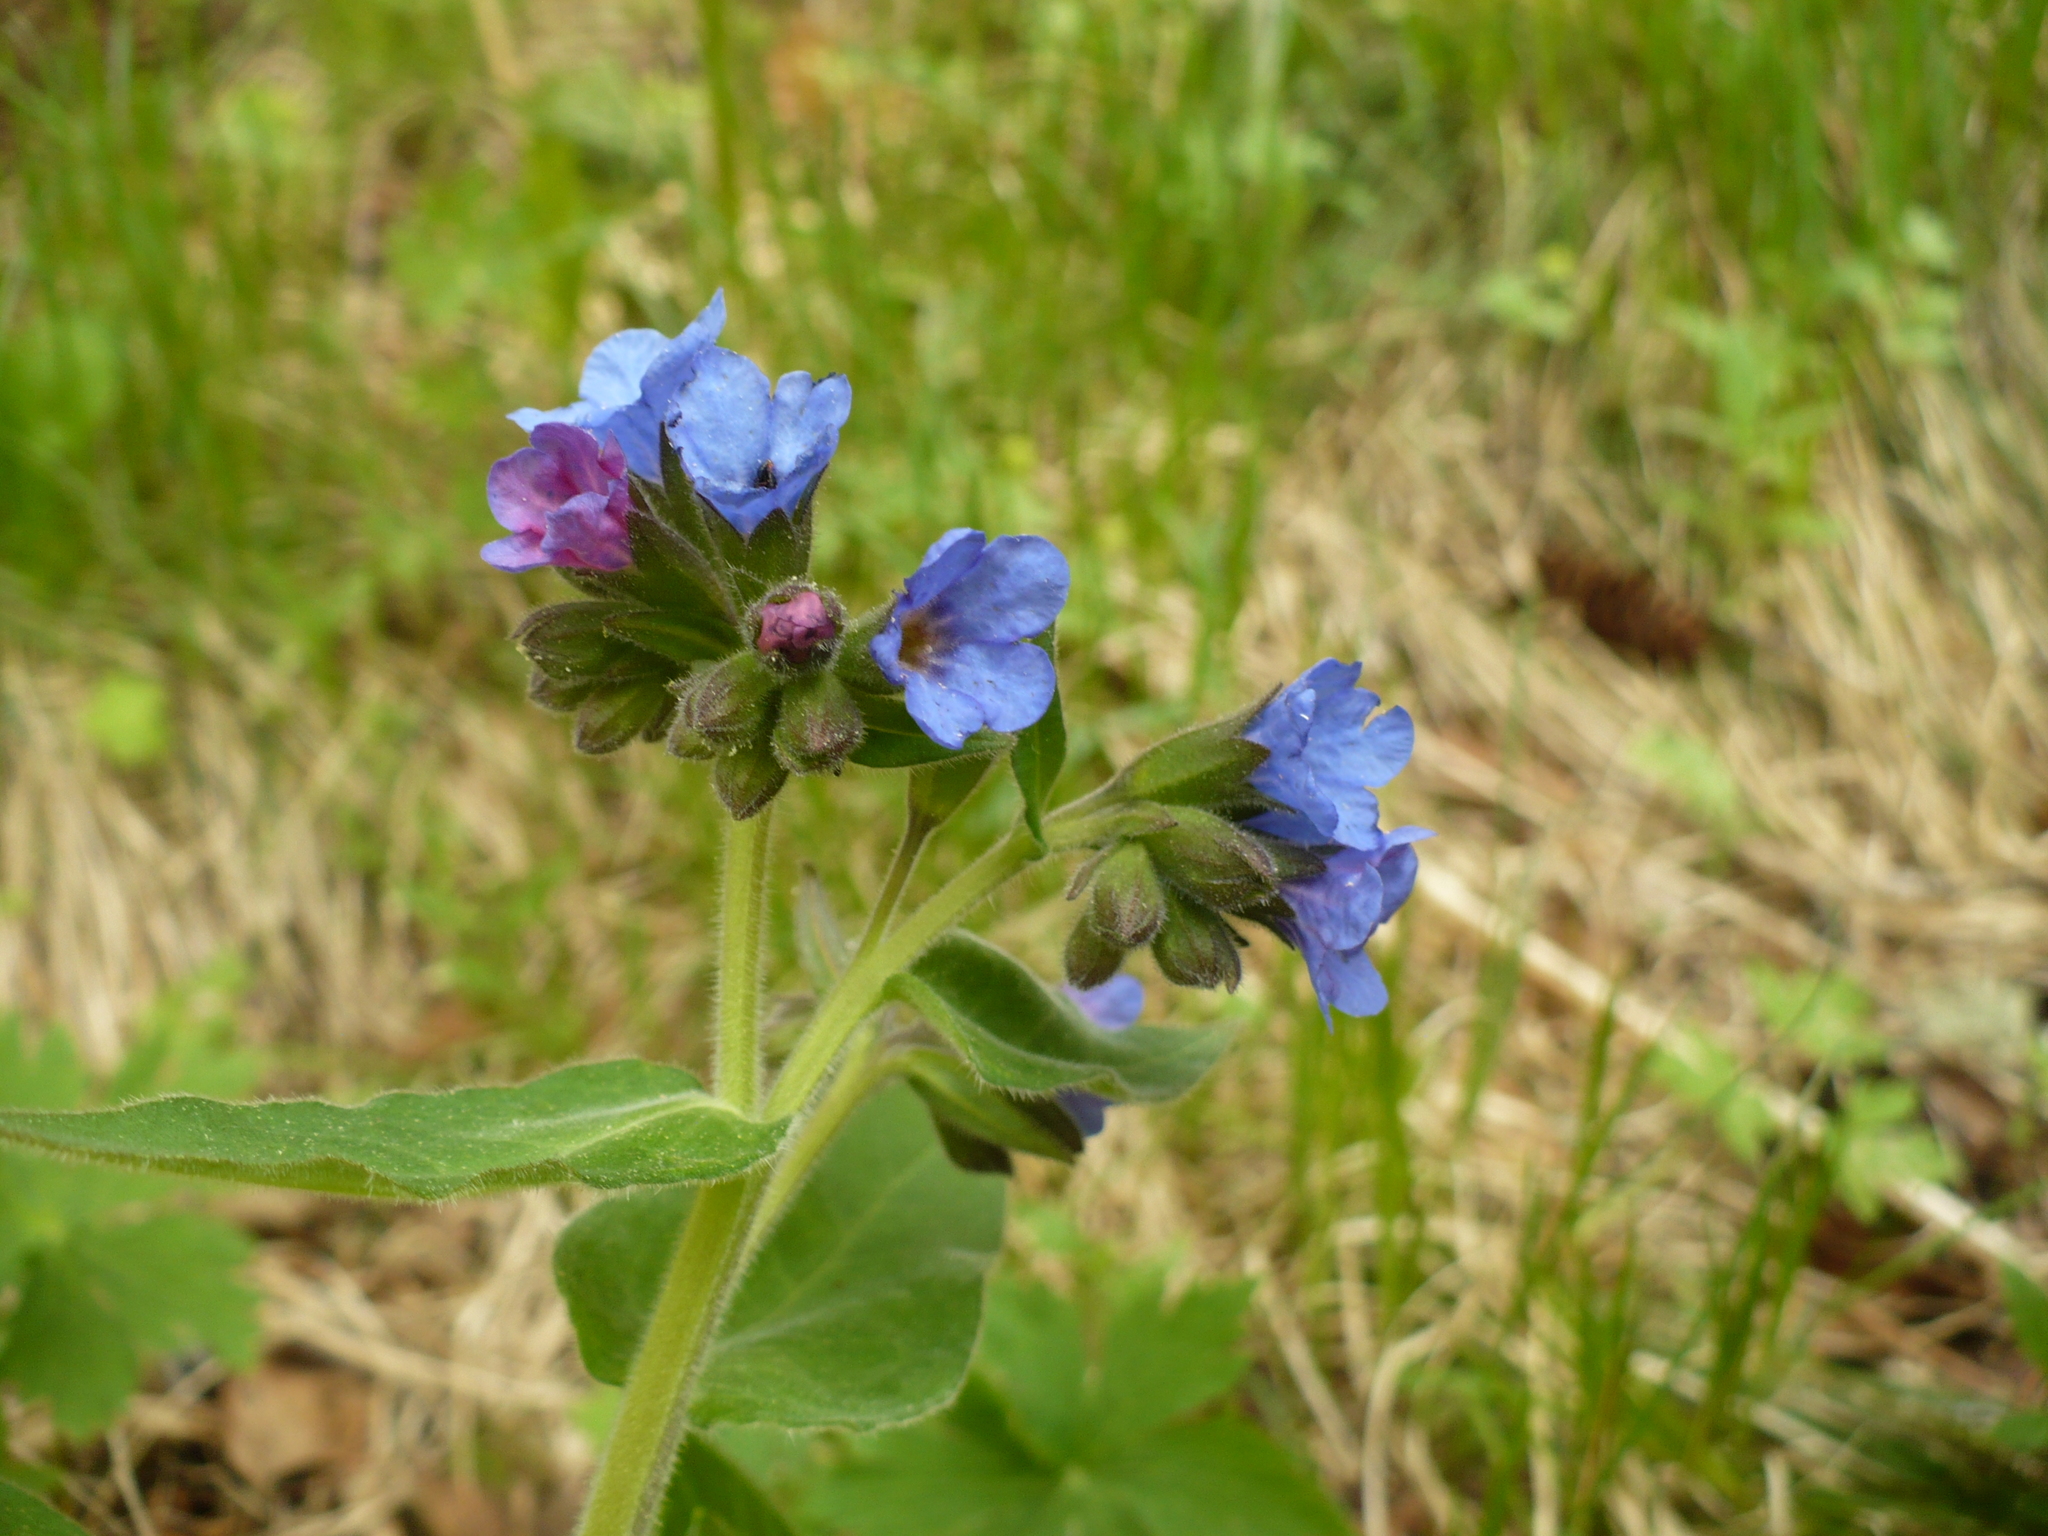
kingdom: Plantae
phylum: Tracheophyta
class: Magnoliopsida
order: Boraginales
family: Boraginaceae
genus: Pulmonaria
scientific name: Pulmonaria mollis
